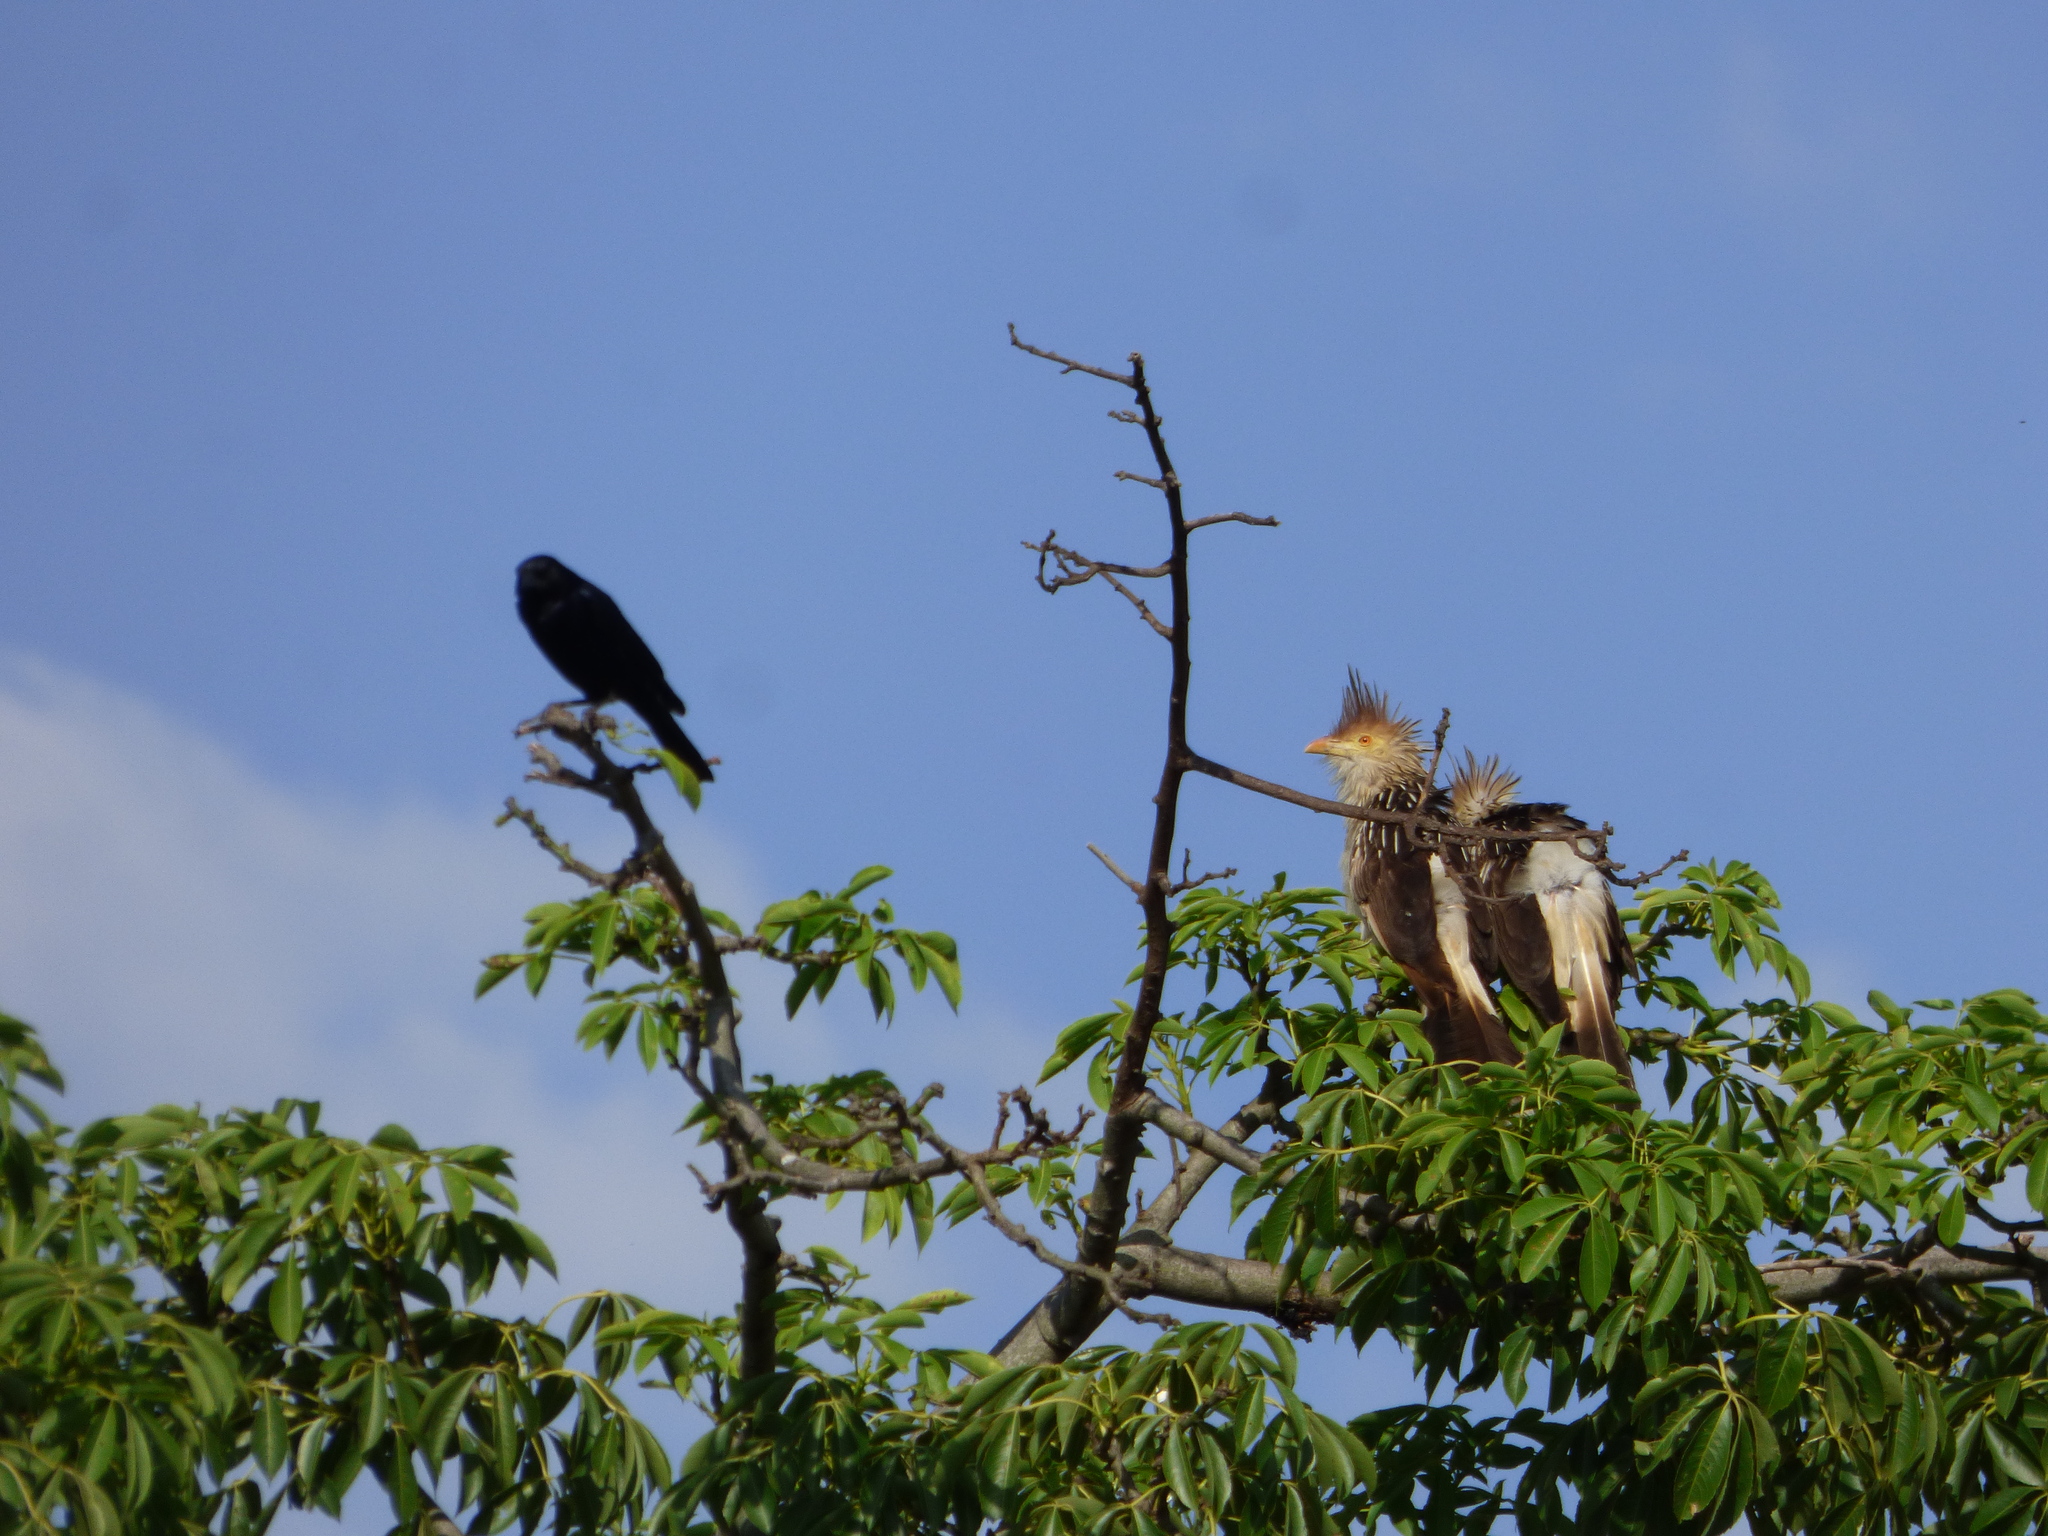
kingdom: Animalia
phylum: Chordata
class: Aves
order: Cuculiformes
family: Cuculidae
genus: Guira
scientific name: Guira guira
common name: Guira cuckoo
